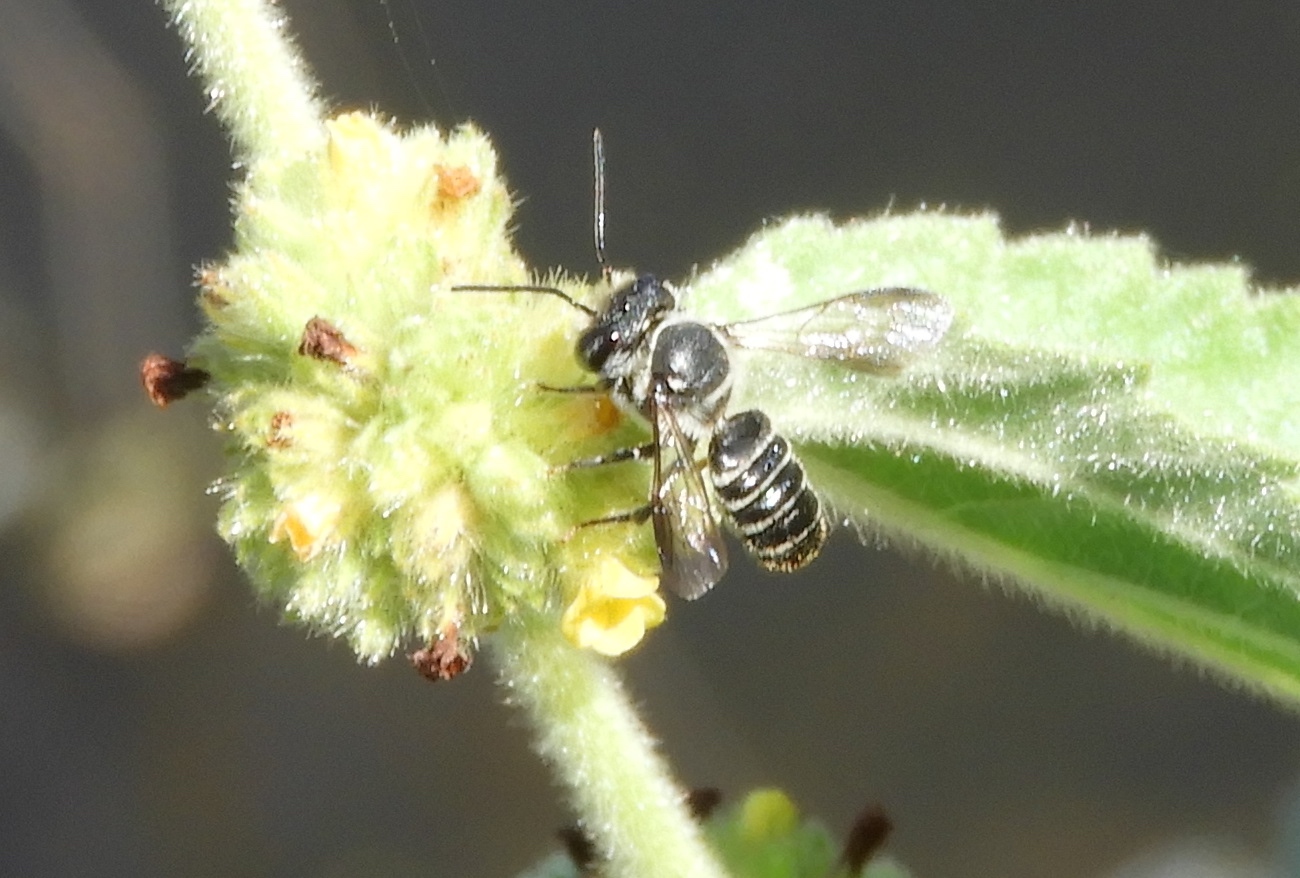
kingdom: Animalia
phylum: Arthropoda
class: Insecta
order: Hymenoptera
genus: Neochelynia
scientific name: Neochelynia
